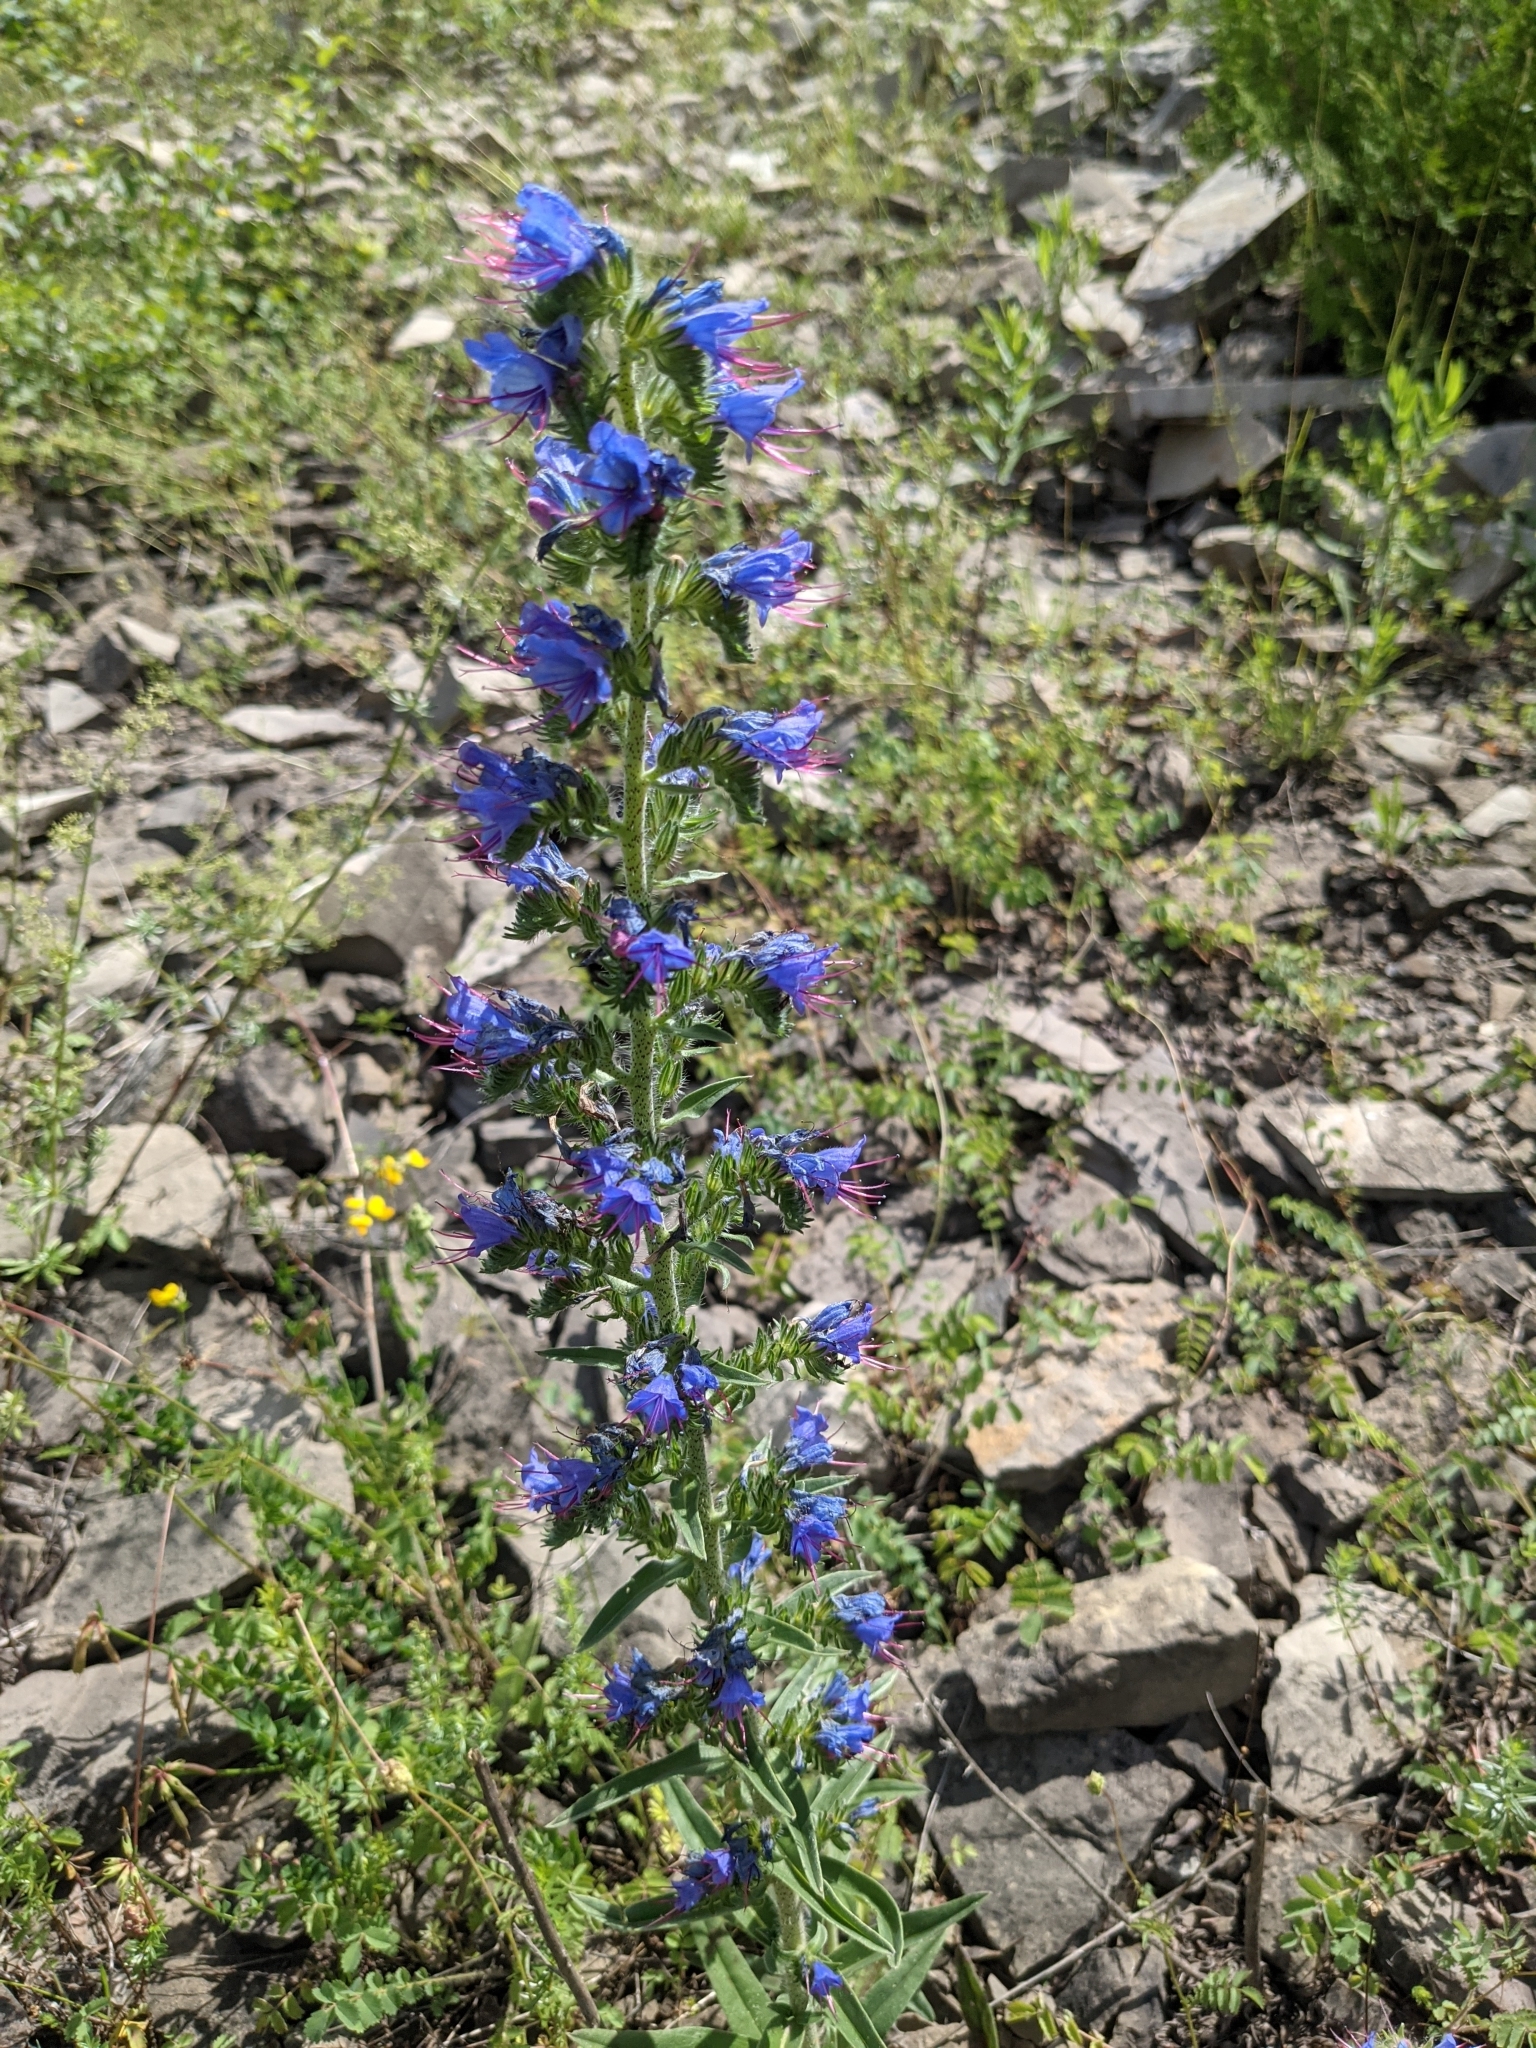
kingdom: Plantae
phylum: Tracheophyta
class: Magnoliopsida
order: Boraginales
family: Boraginaceae
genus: Echium
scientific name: Echium vulgare
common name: Common viper's bugloss
